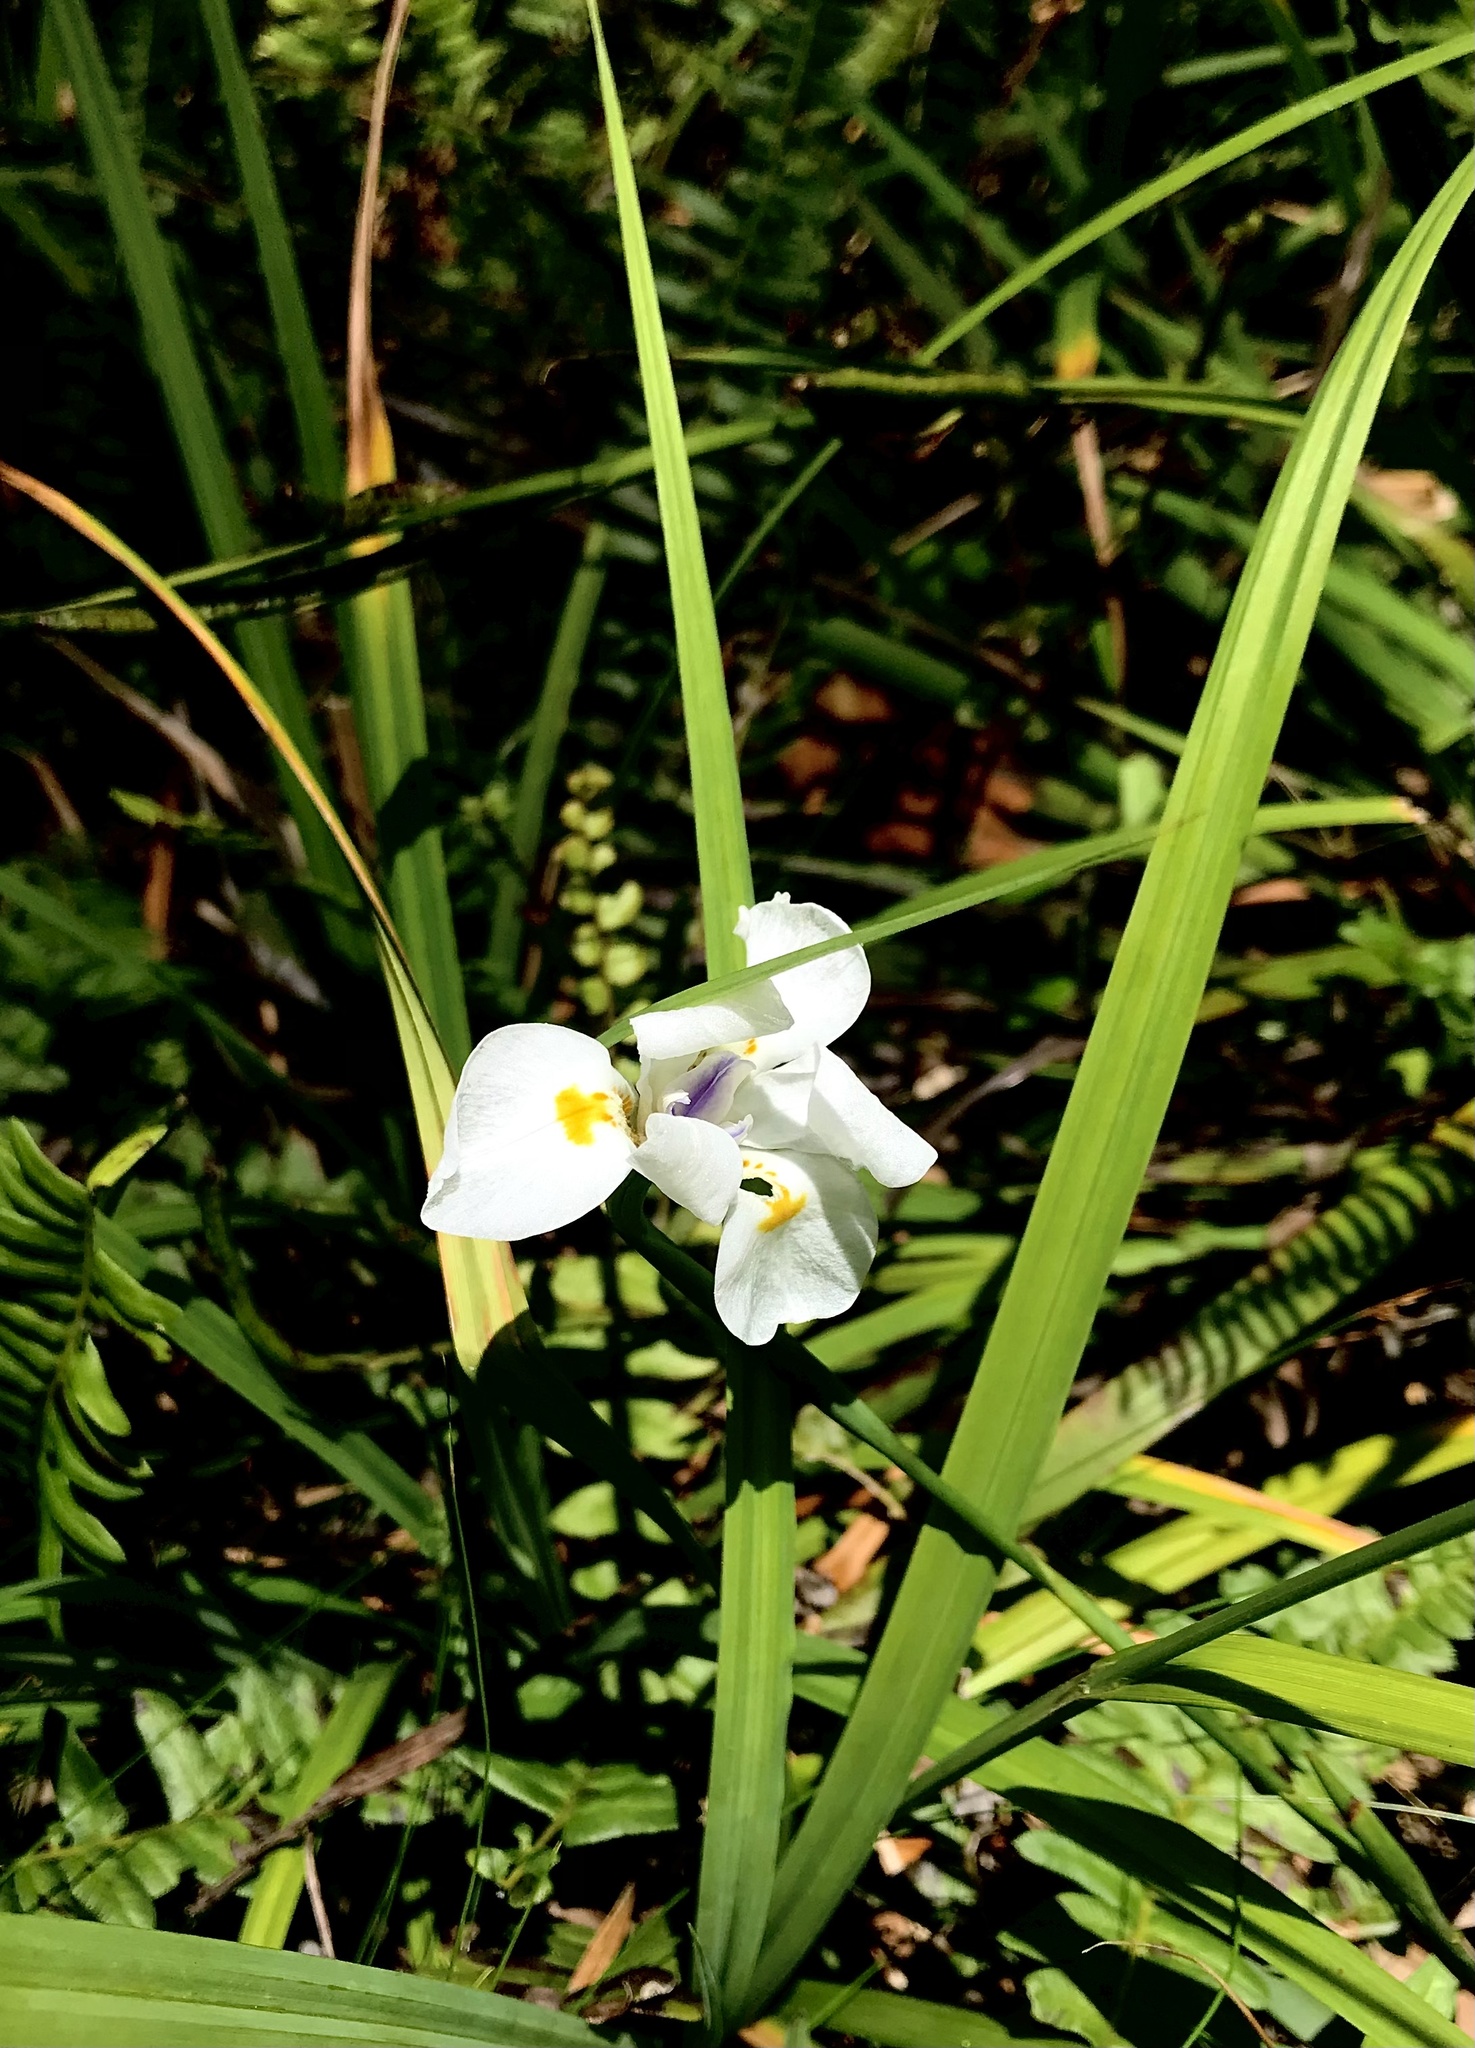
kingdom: Plantae
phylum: Tracheophyta
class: Liliopsida
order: Asparagales
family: Iridaceae
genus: Dietes
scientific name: Dietes iridioides
